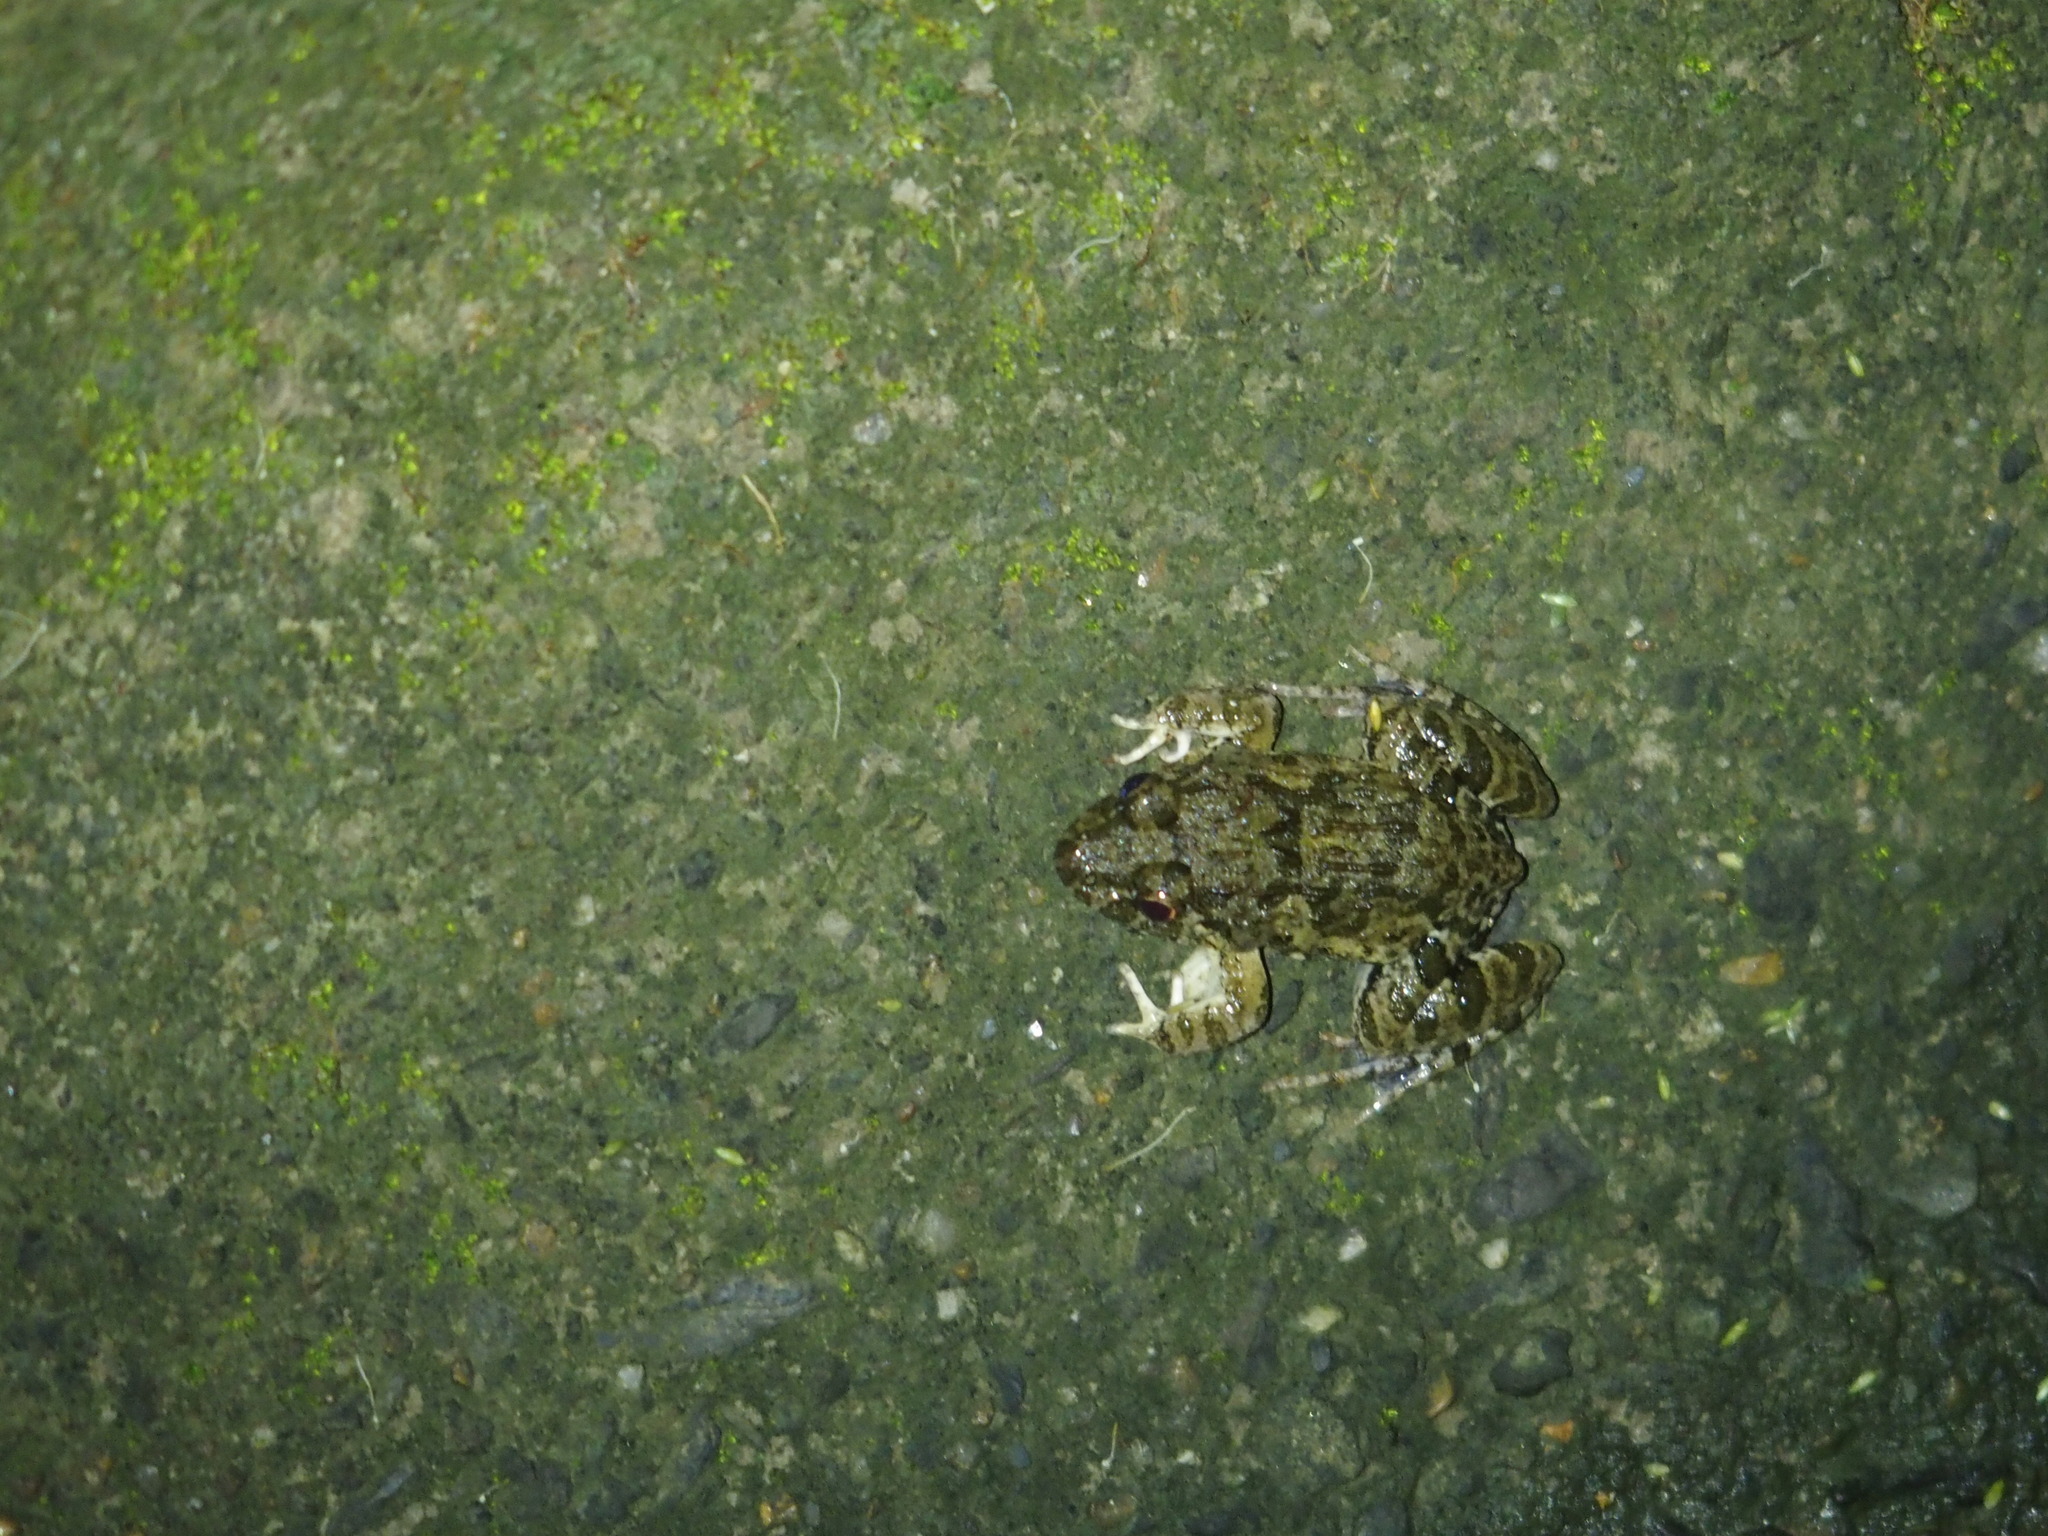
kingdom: Animalia
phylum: Chordata
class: Amphibia
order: Anura
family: Dicroglossidae
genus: Fejervarya
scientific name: Fejervarya limnocharis
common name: Asian grass frog/common pond frog/field frog/grass frog/indian rice frog
